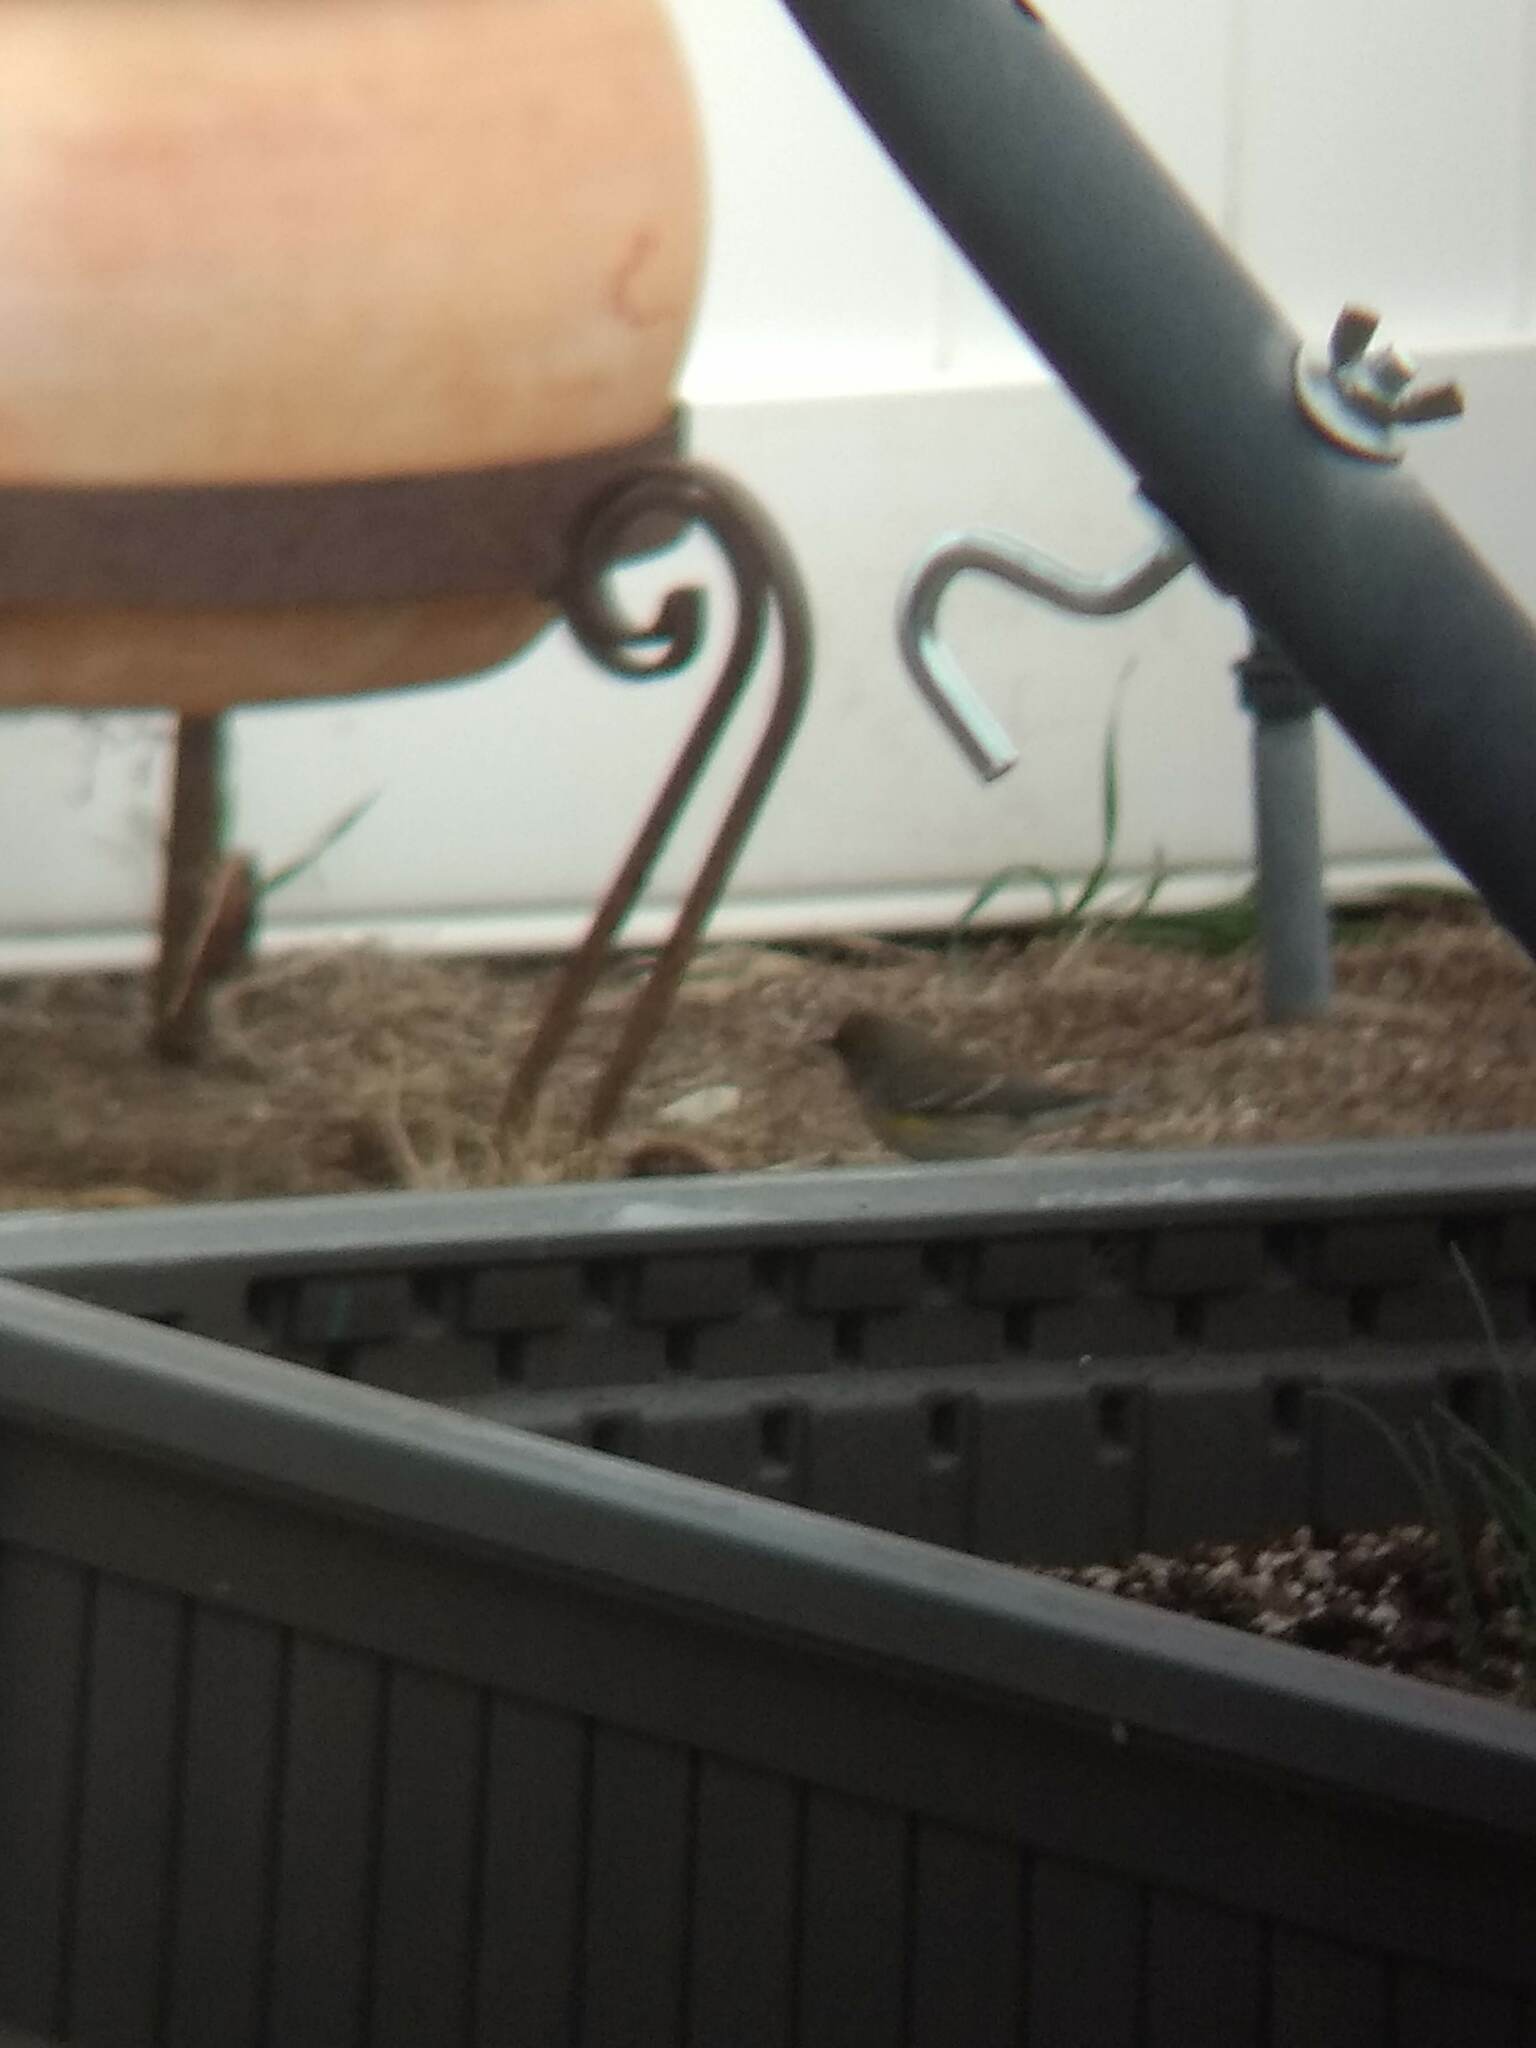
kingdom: Animalia
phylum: Chordata
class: Aves
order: Passeriformes
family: Parulidae
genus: Setophaga
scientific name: Setophaga coronata
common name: Myrtle warbler
